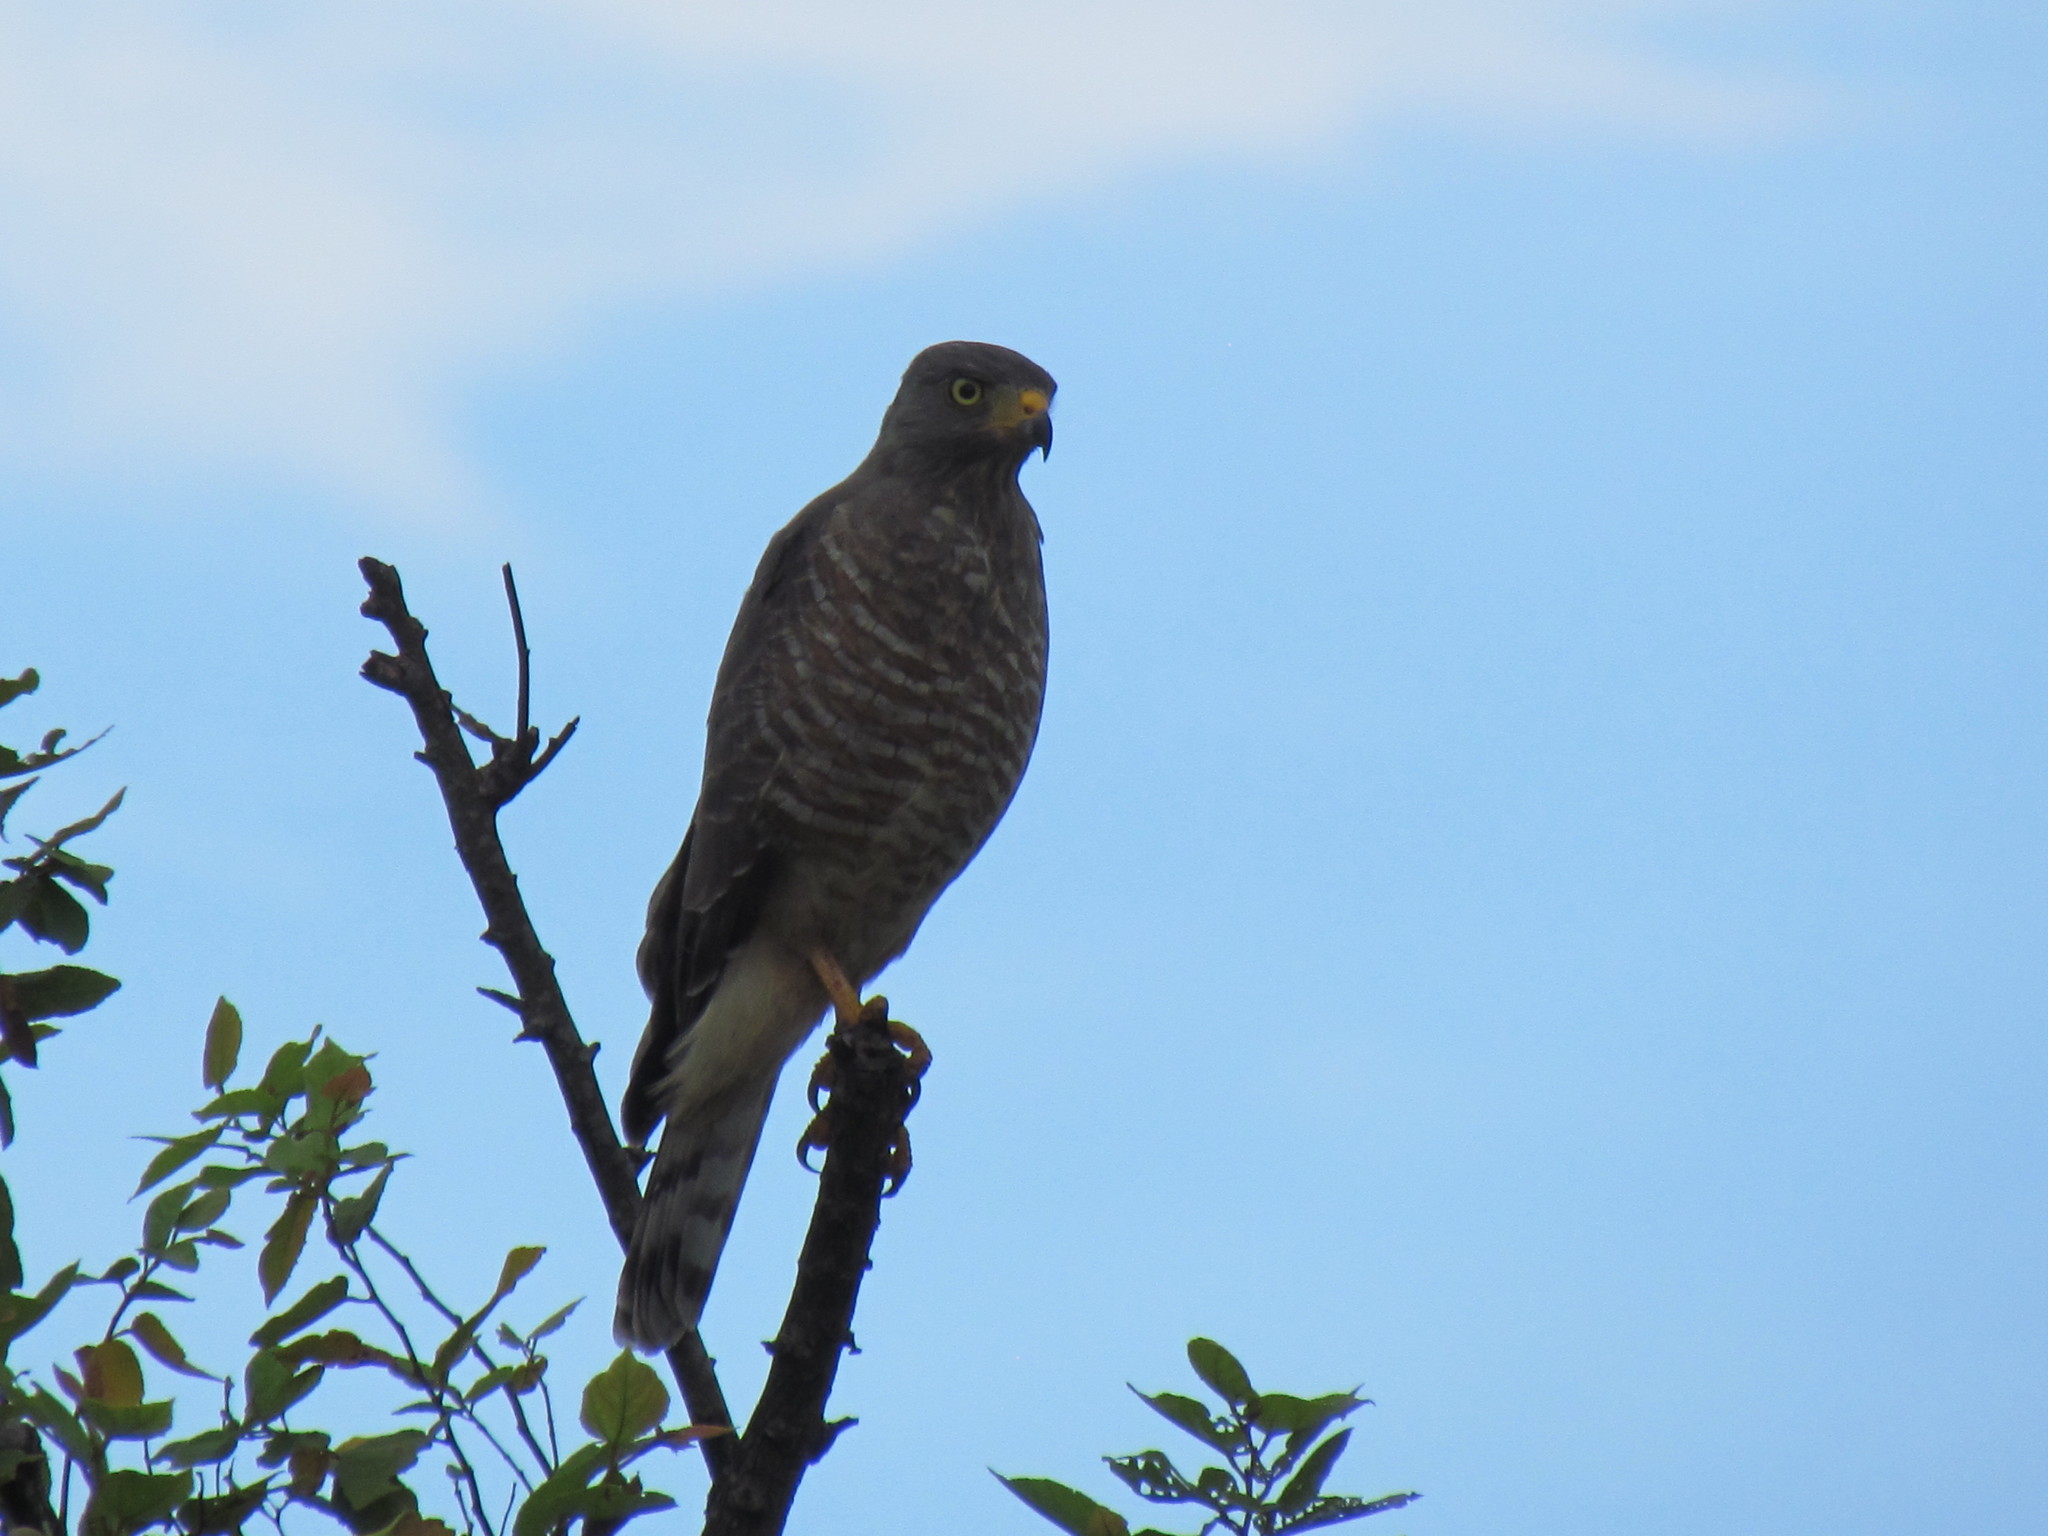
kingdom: Animalia
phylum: Chordata
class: Aves
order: Accipitriformes
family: Accipitridae
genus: Rupornis
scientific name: Rupornis magnirostris
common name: Roadside hawk
